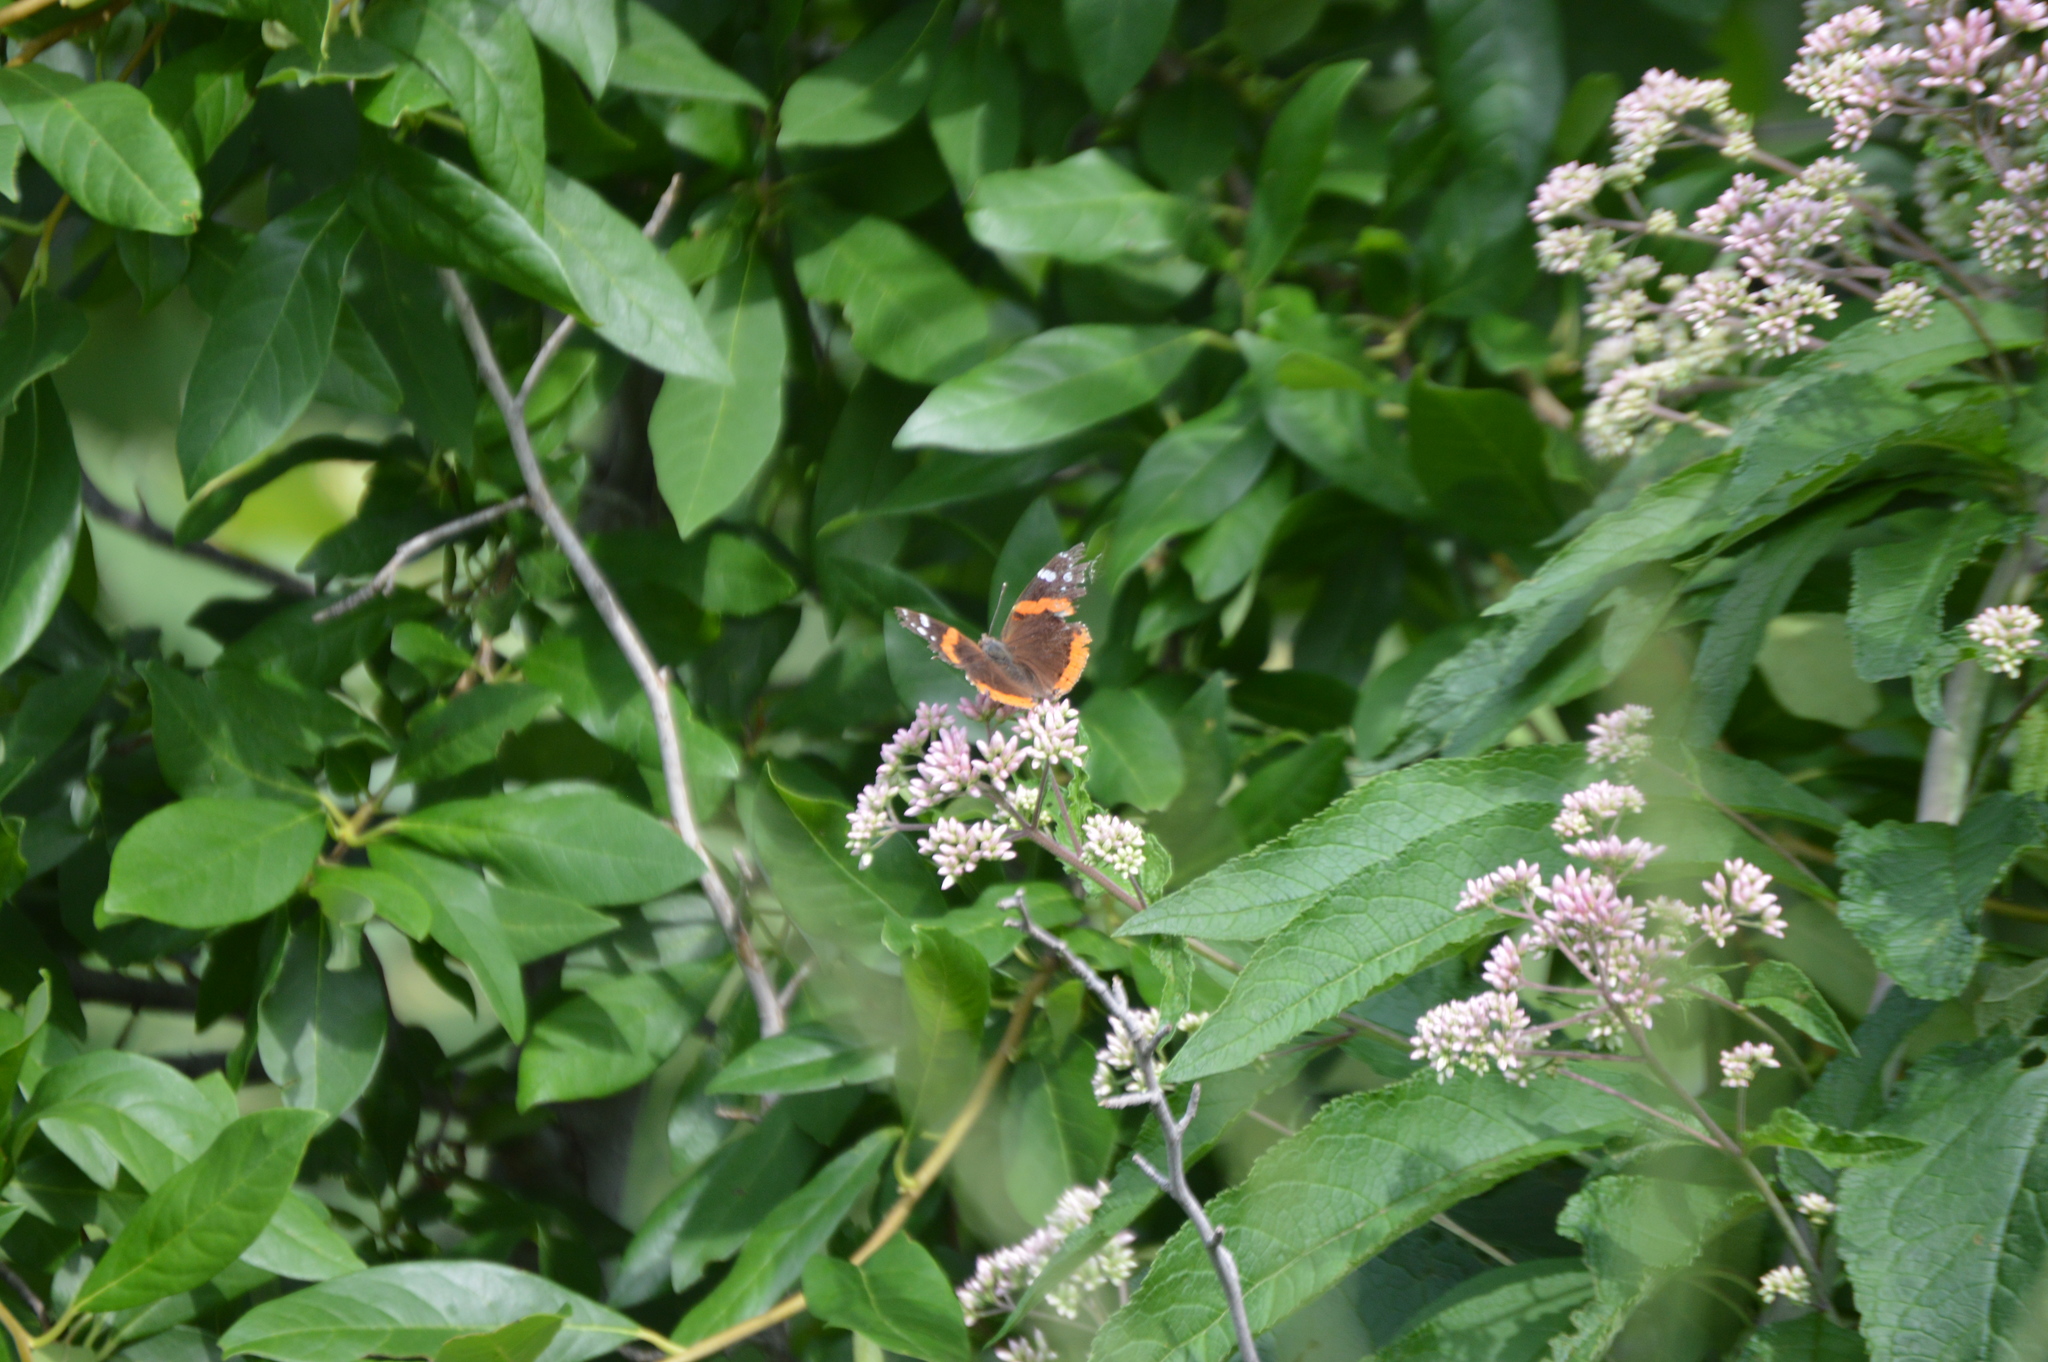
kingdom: Animalia
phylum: Arthropoda
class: Insecta
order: Lepidoptera
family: Nymphalidae
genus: Vanessa
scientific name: Vanessa atalanta
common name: Red admiral
